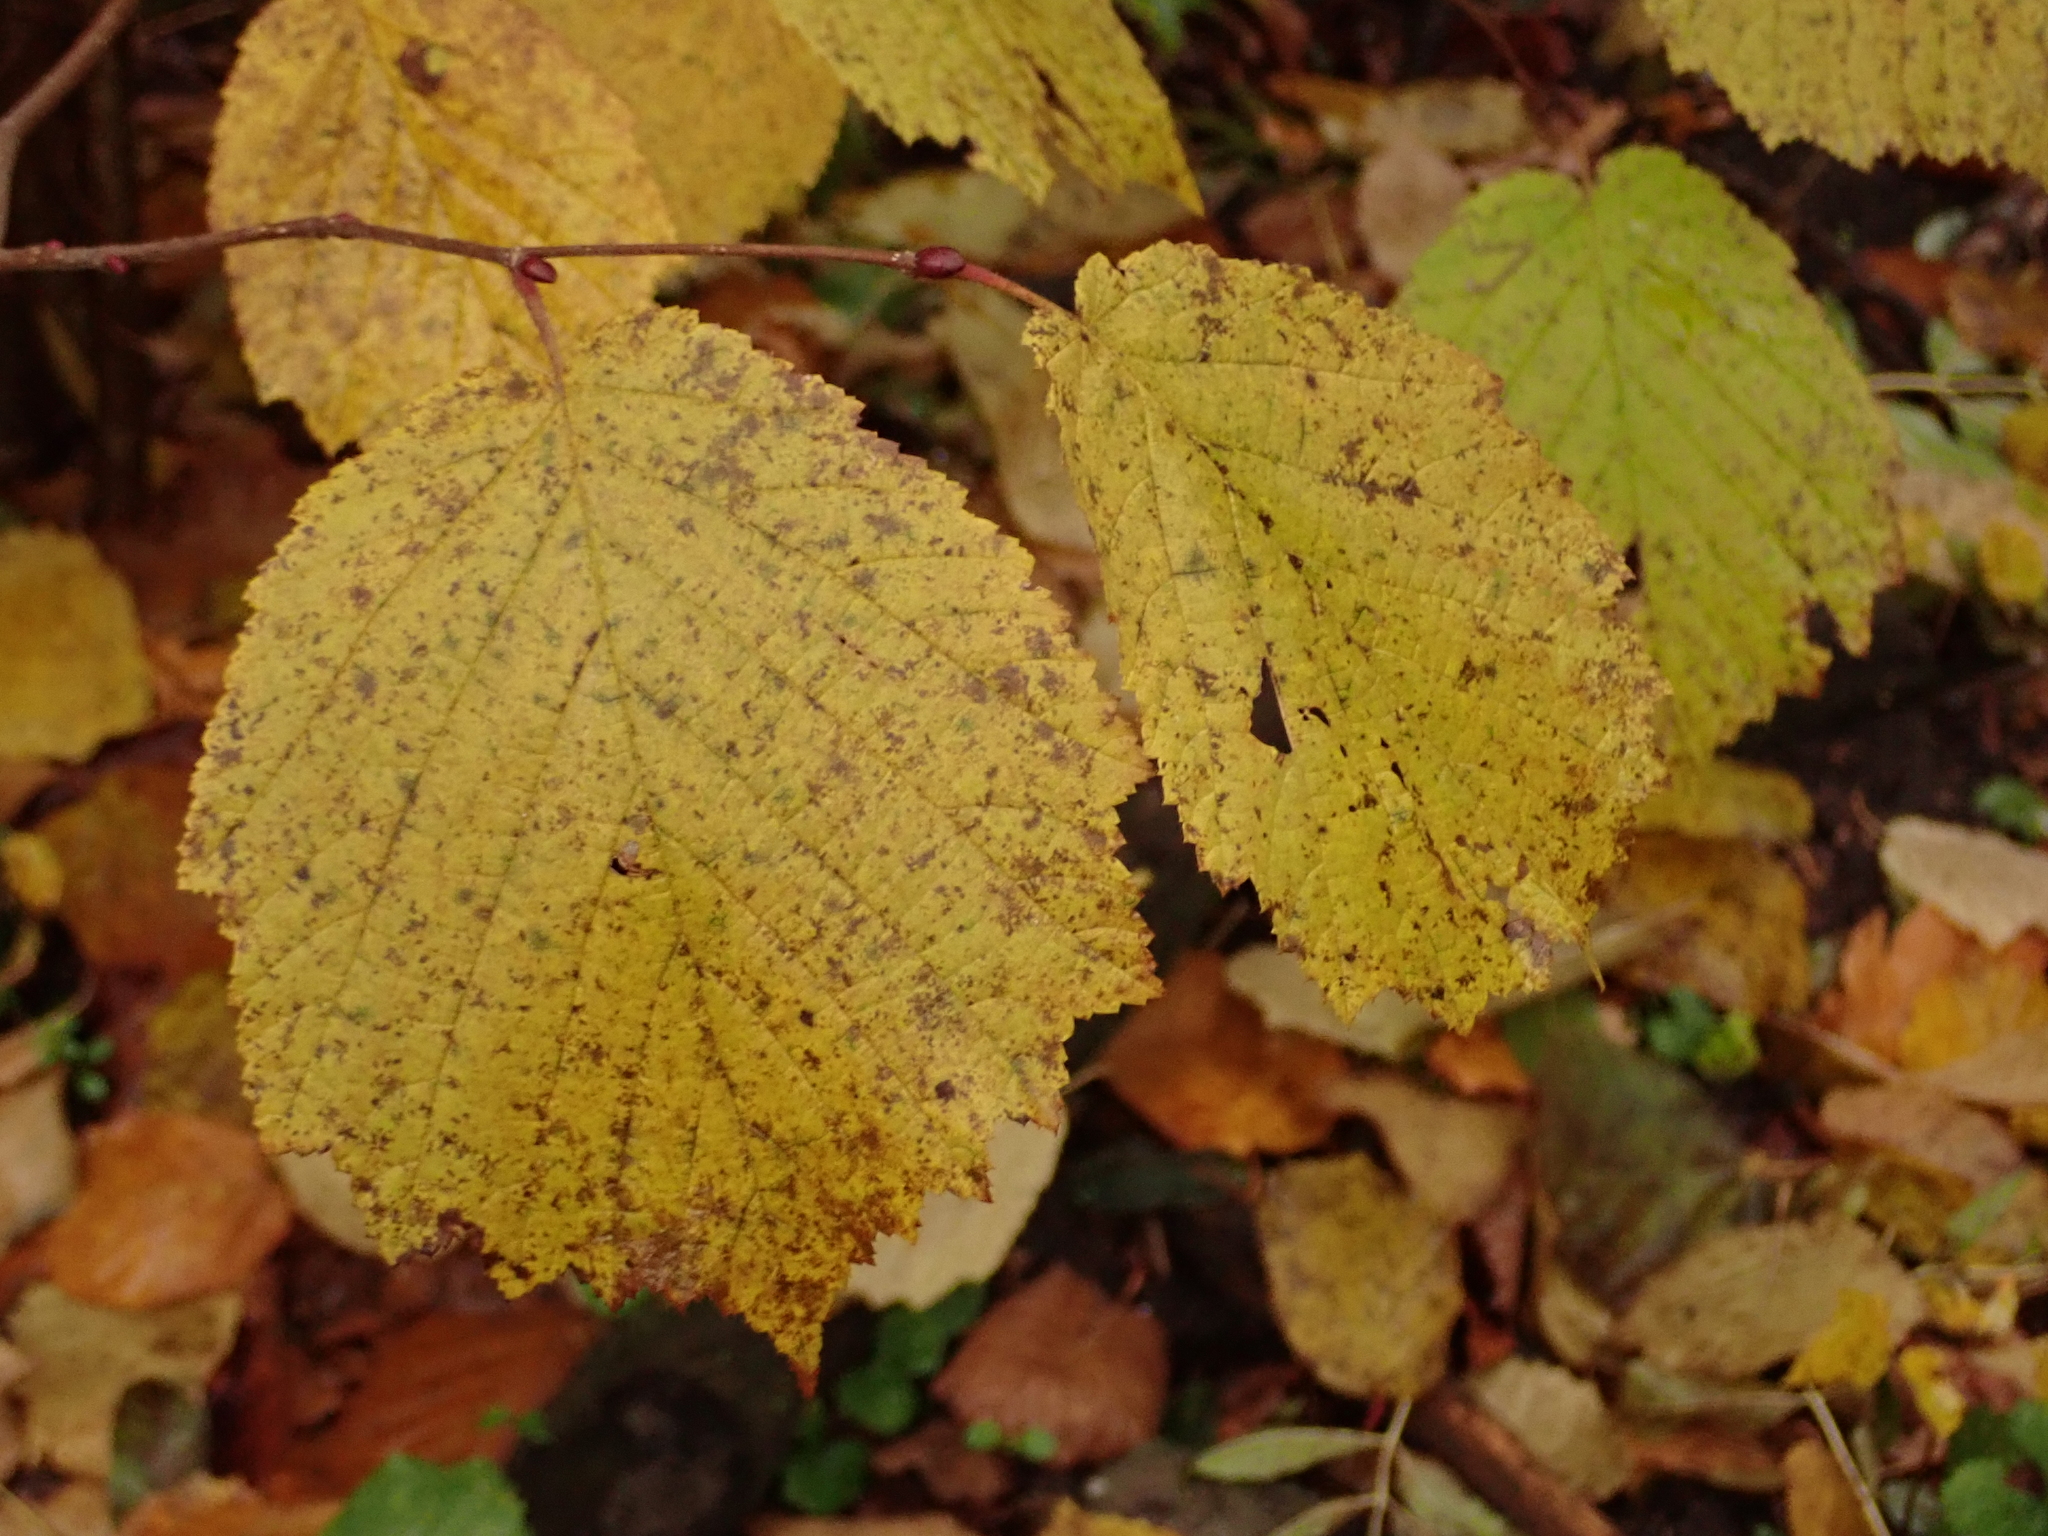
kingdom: Plantae
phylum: Tracheophyta
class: Magnoliopsida
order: Fagales
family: Betulaceae
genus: Corylus
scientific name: Corylus avellana
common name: European hazel
